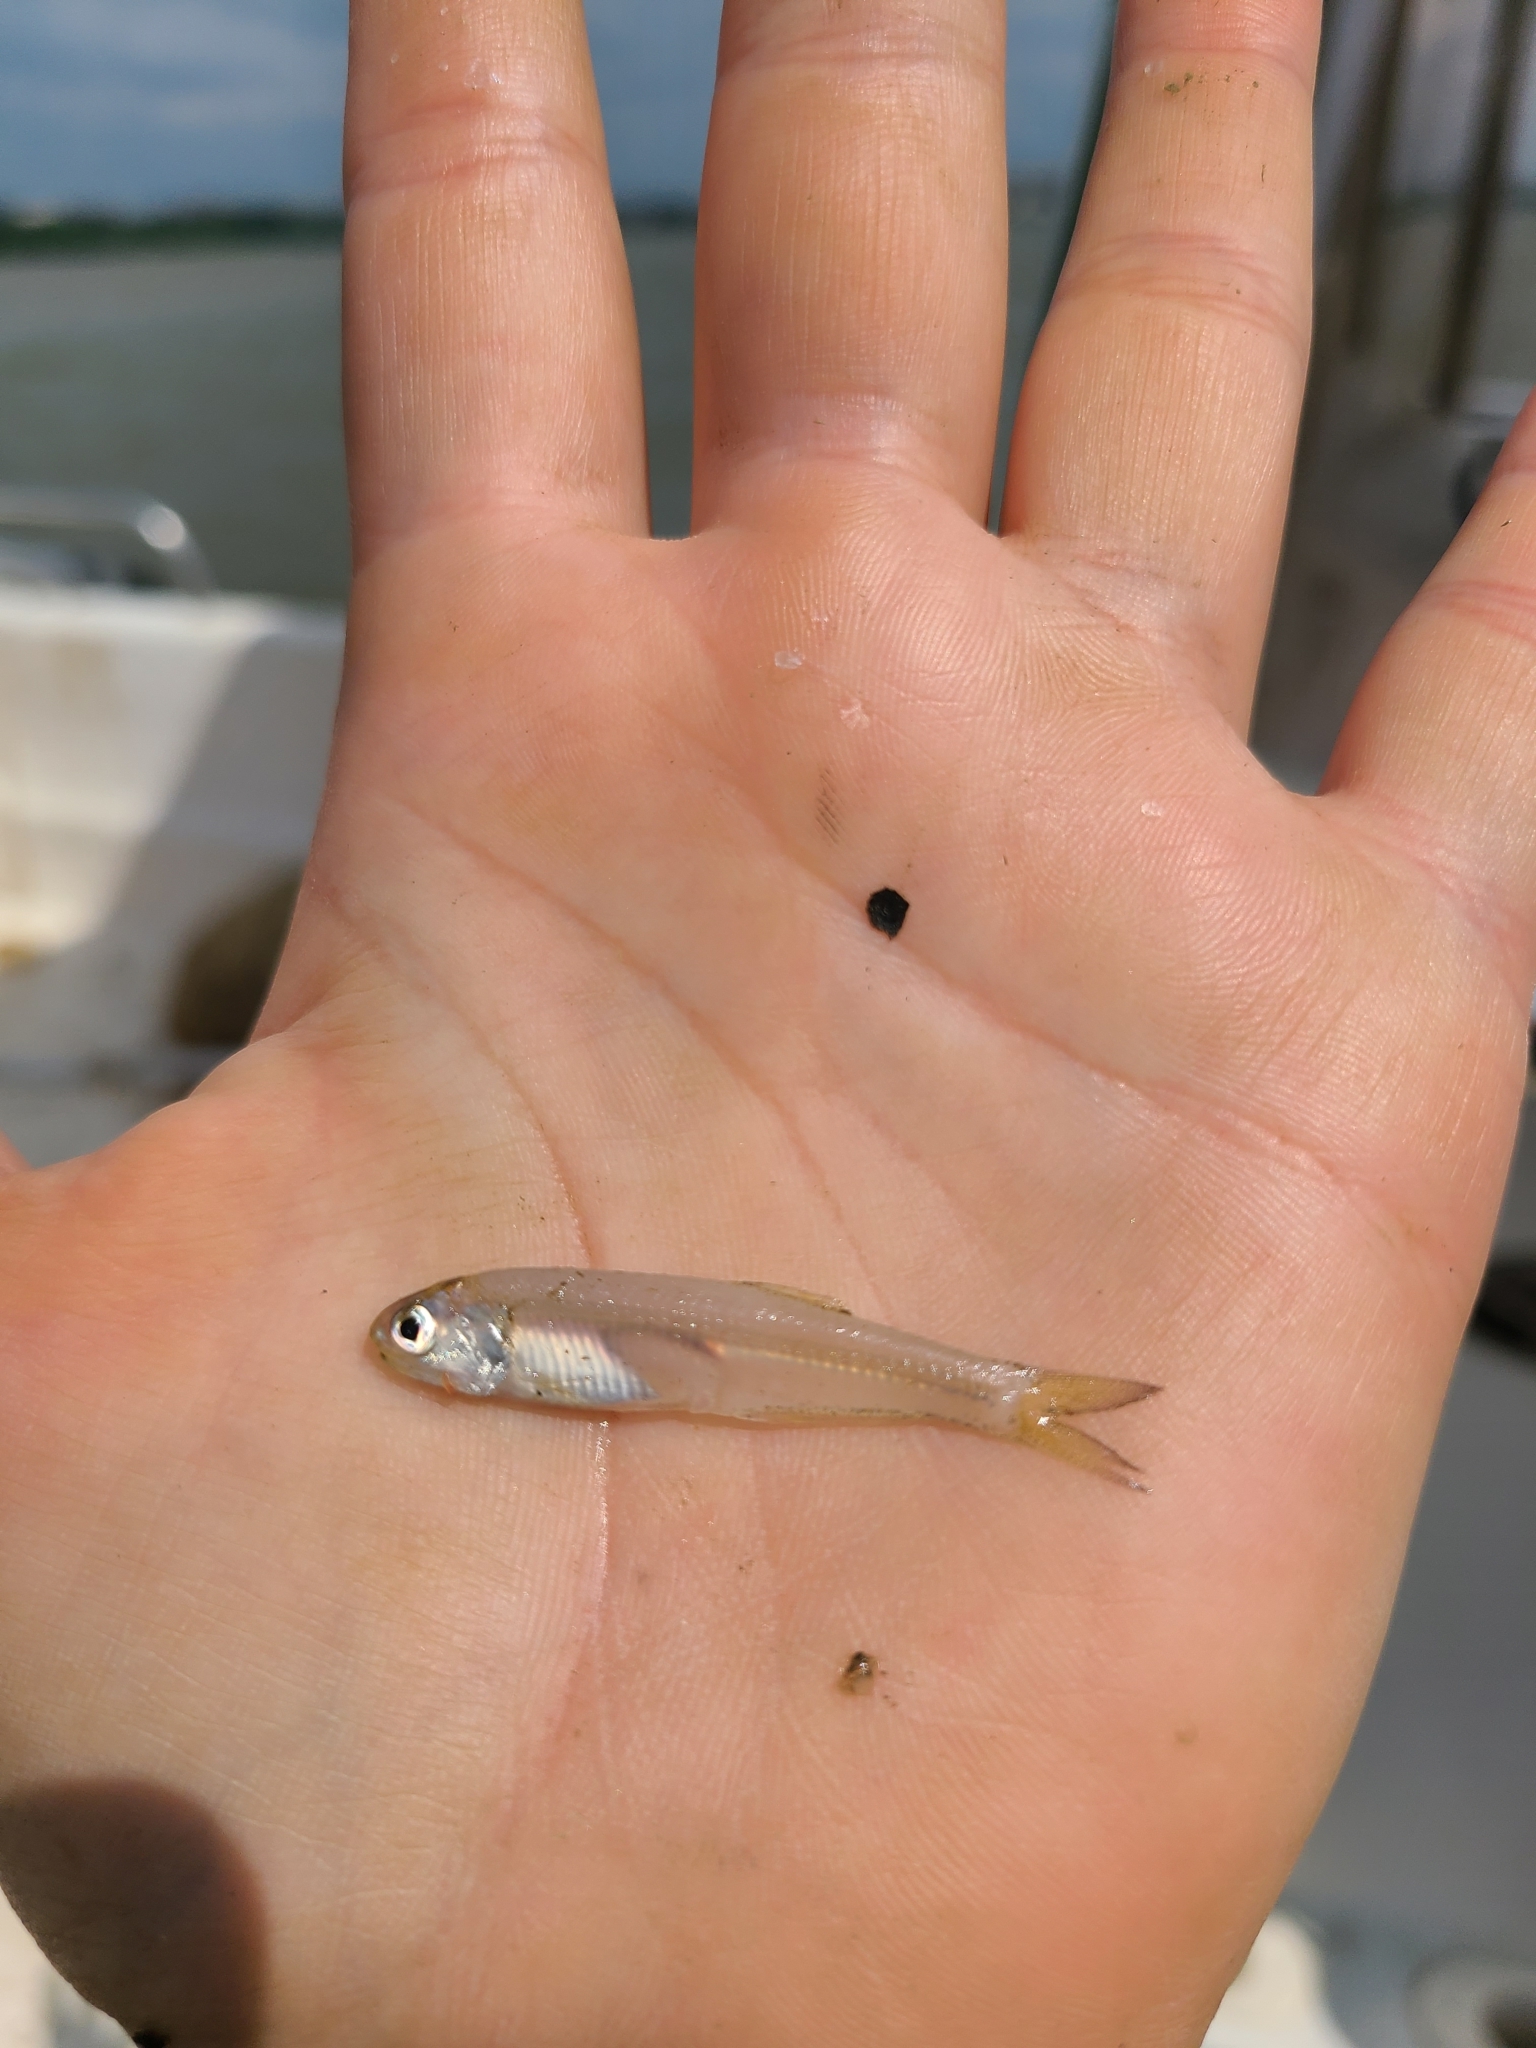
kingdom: Animalia
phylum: Chordata
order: Clupeiformes
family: Engraulidae
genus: Anchoa
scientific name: Anchoa mitchilli
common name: Bay anchovy
